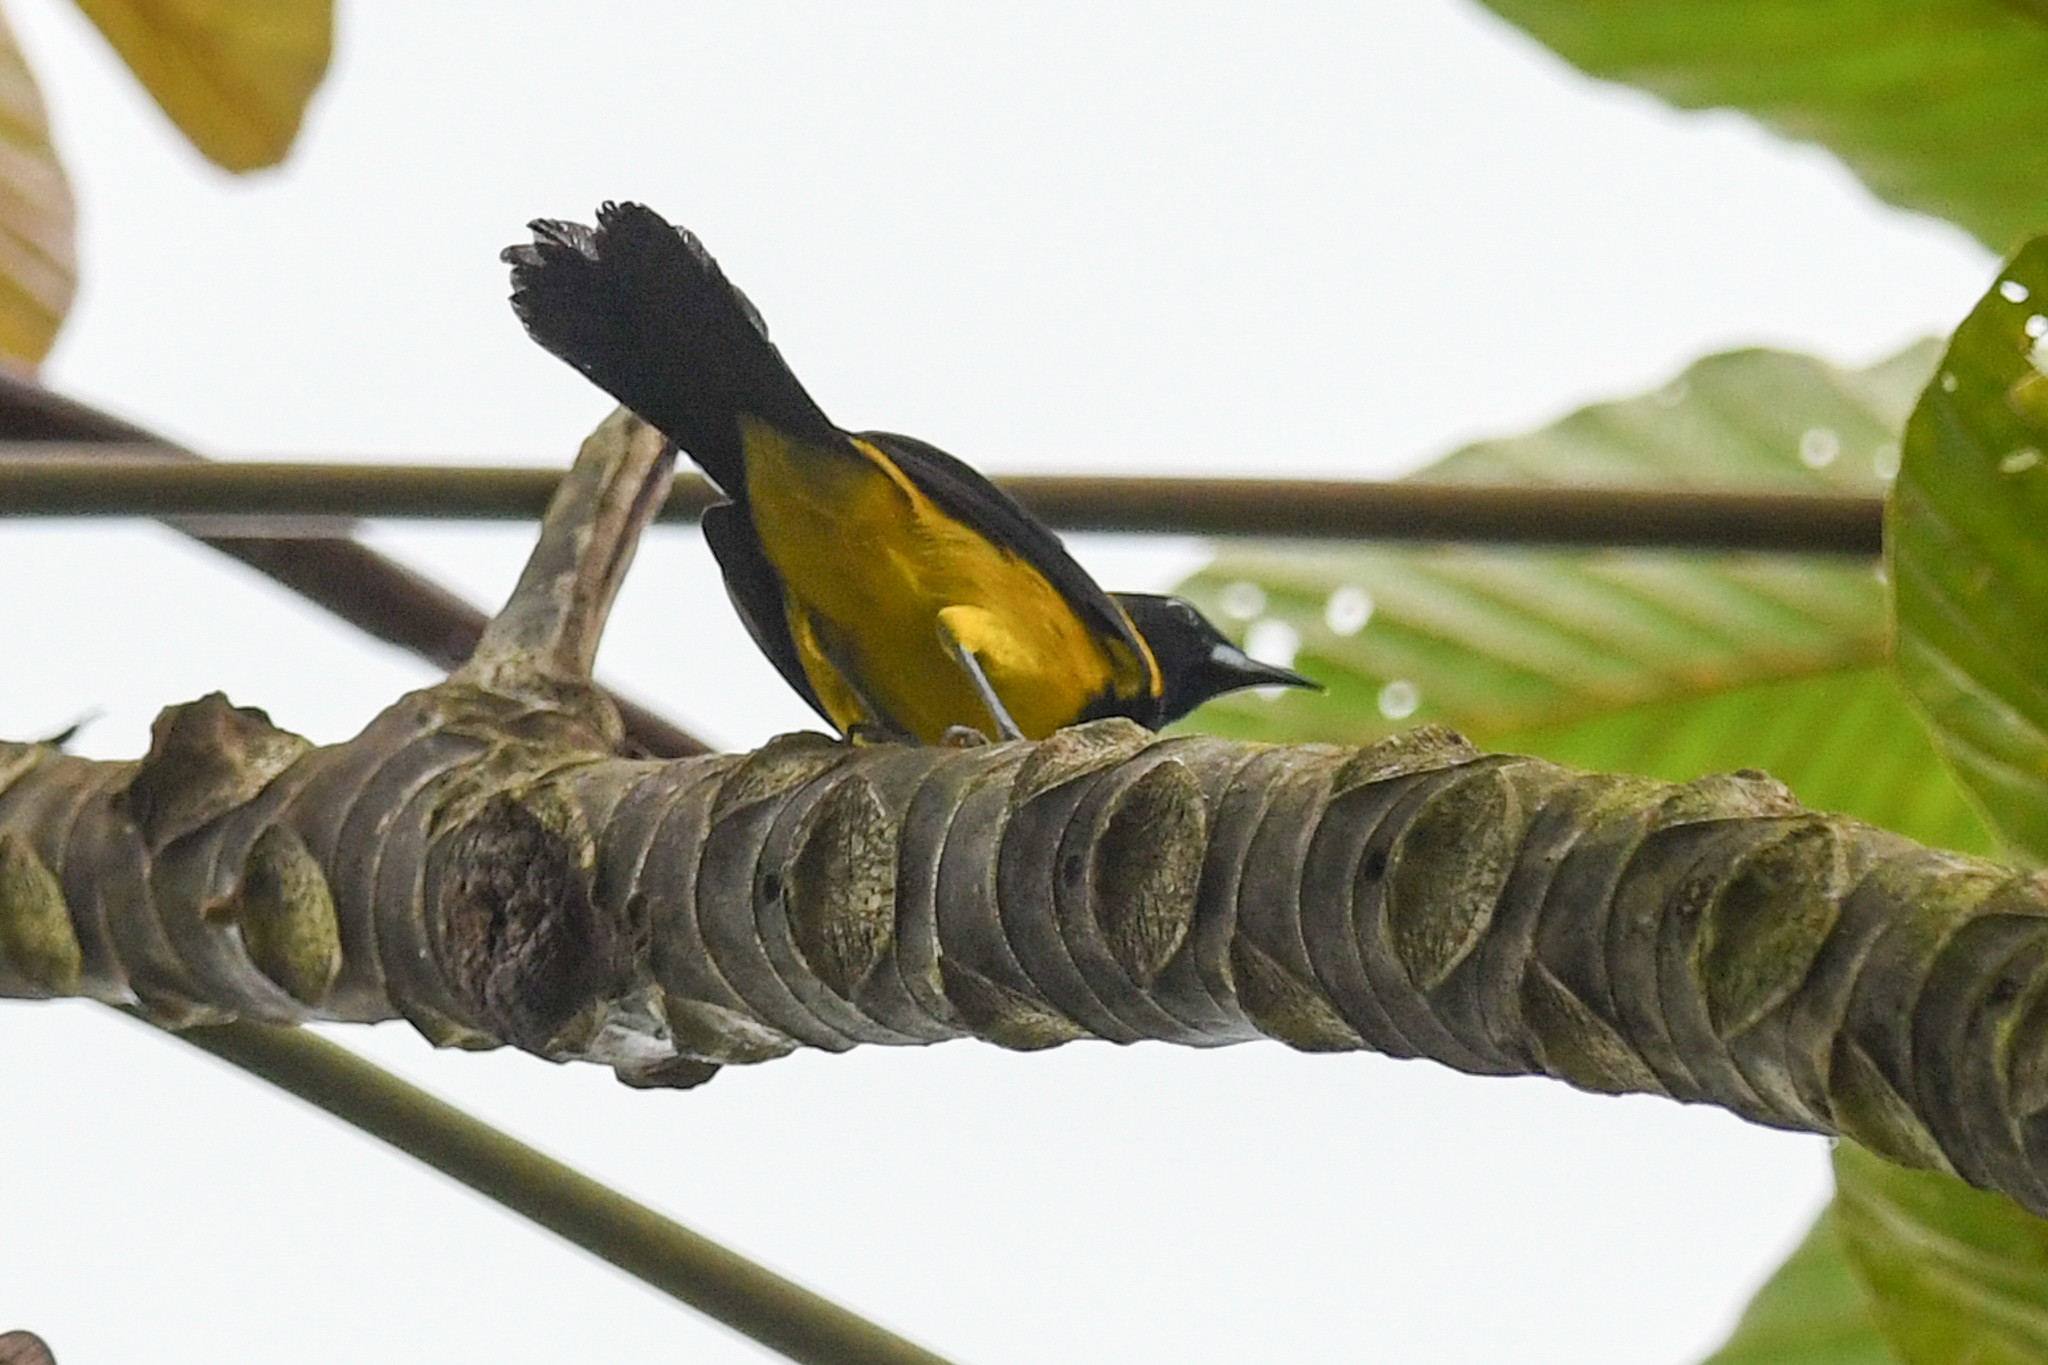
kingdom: Animalia
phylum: Chordata
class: Aves
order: Passeriformes
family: Icteridae
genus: Icterus
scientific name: Icterus prosthemelas
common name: Black-cowled oriole
